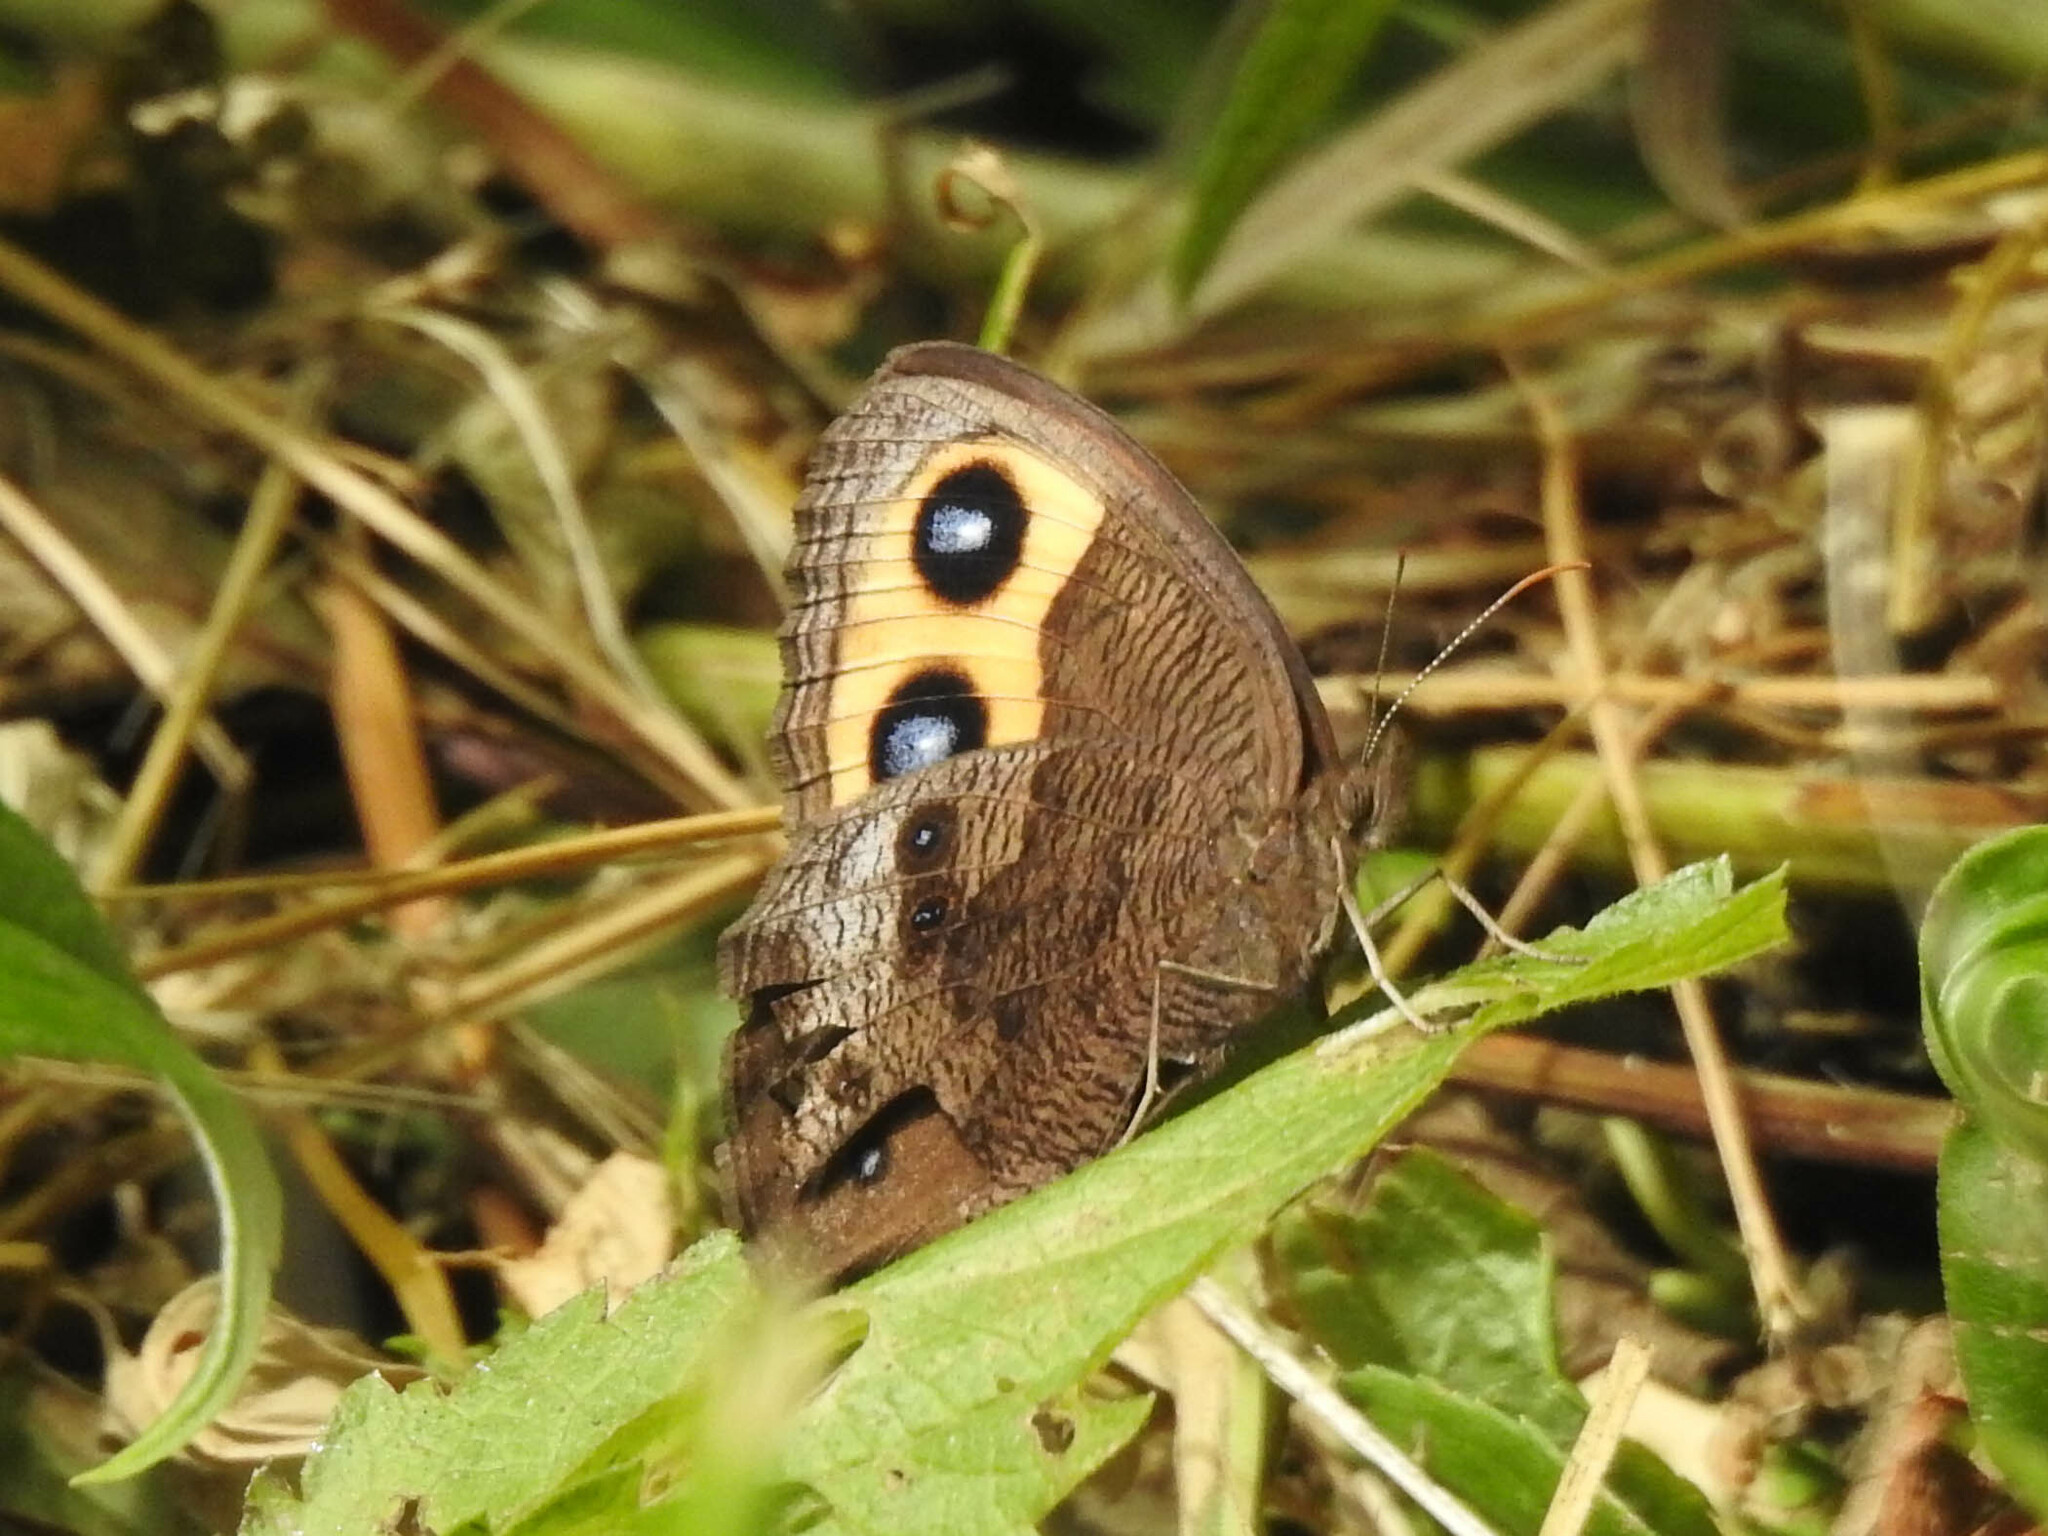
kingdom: Animalia
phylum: Arthropoda
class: Insecta
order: Lepidoptera
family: Nymphalidae
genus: Cercyonis
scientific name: Cercyonis pegala
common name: Common wood-nymph
